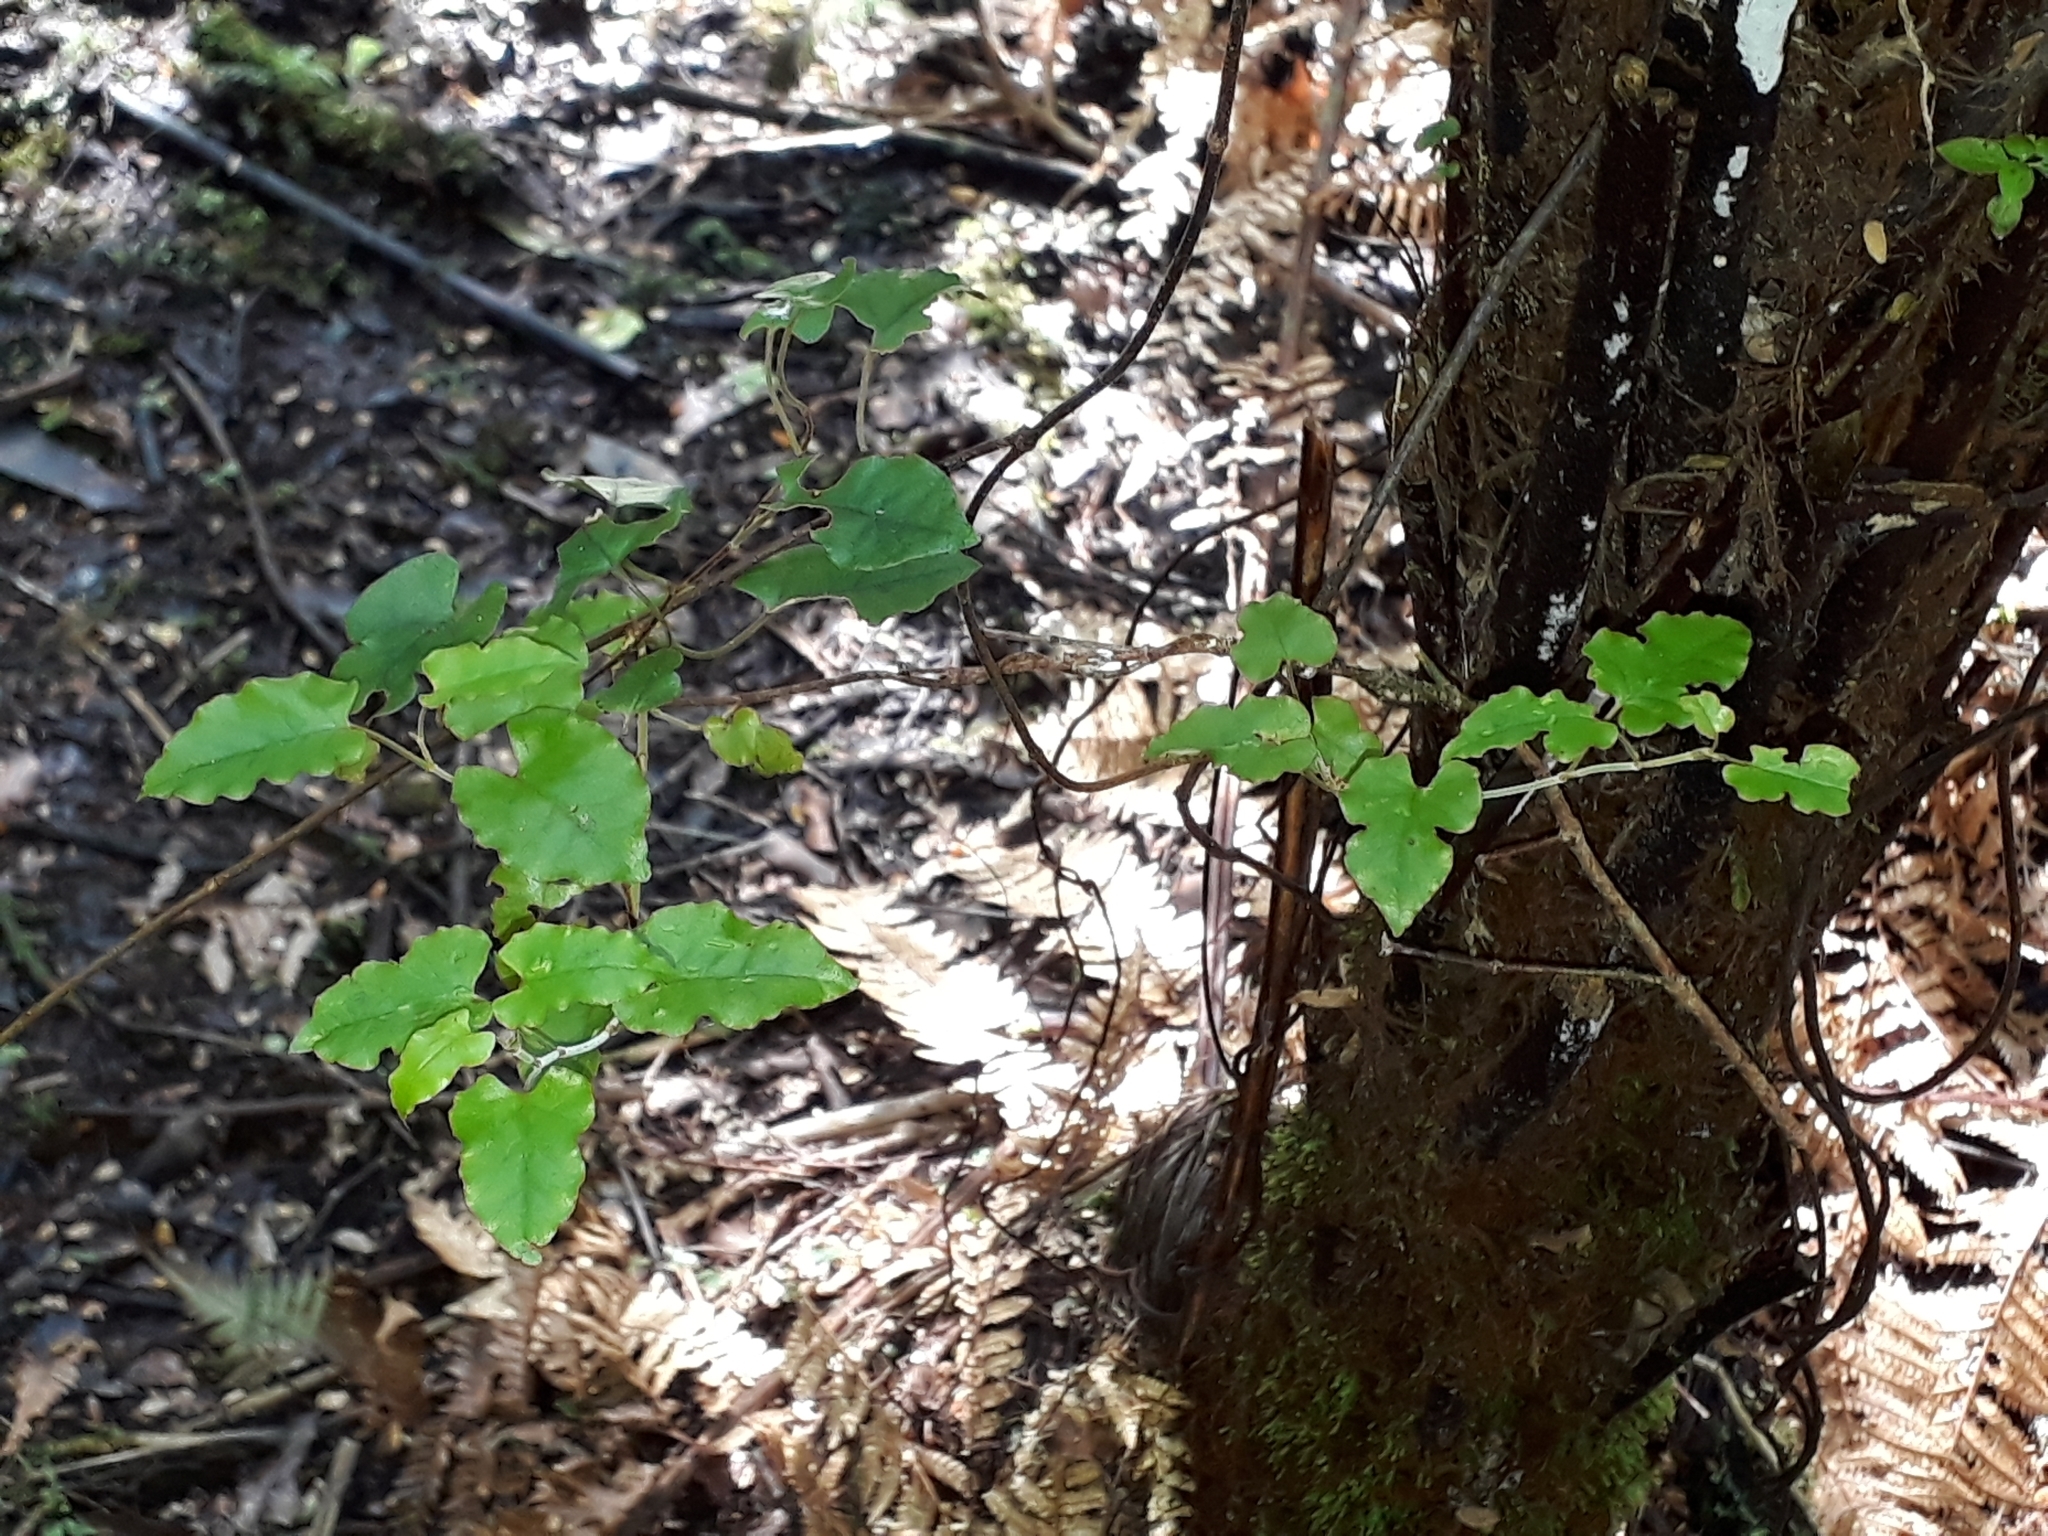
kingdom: Plantae
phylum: Tracheophyta
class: Magnoliopsida
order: Caryophyllales
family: Polygonaceae
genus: Muehlenbeckia
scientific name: Muehlenbeckia australis
